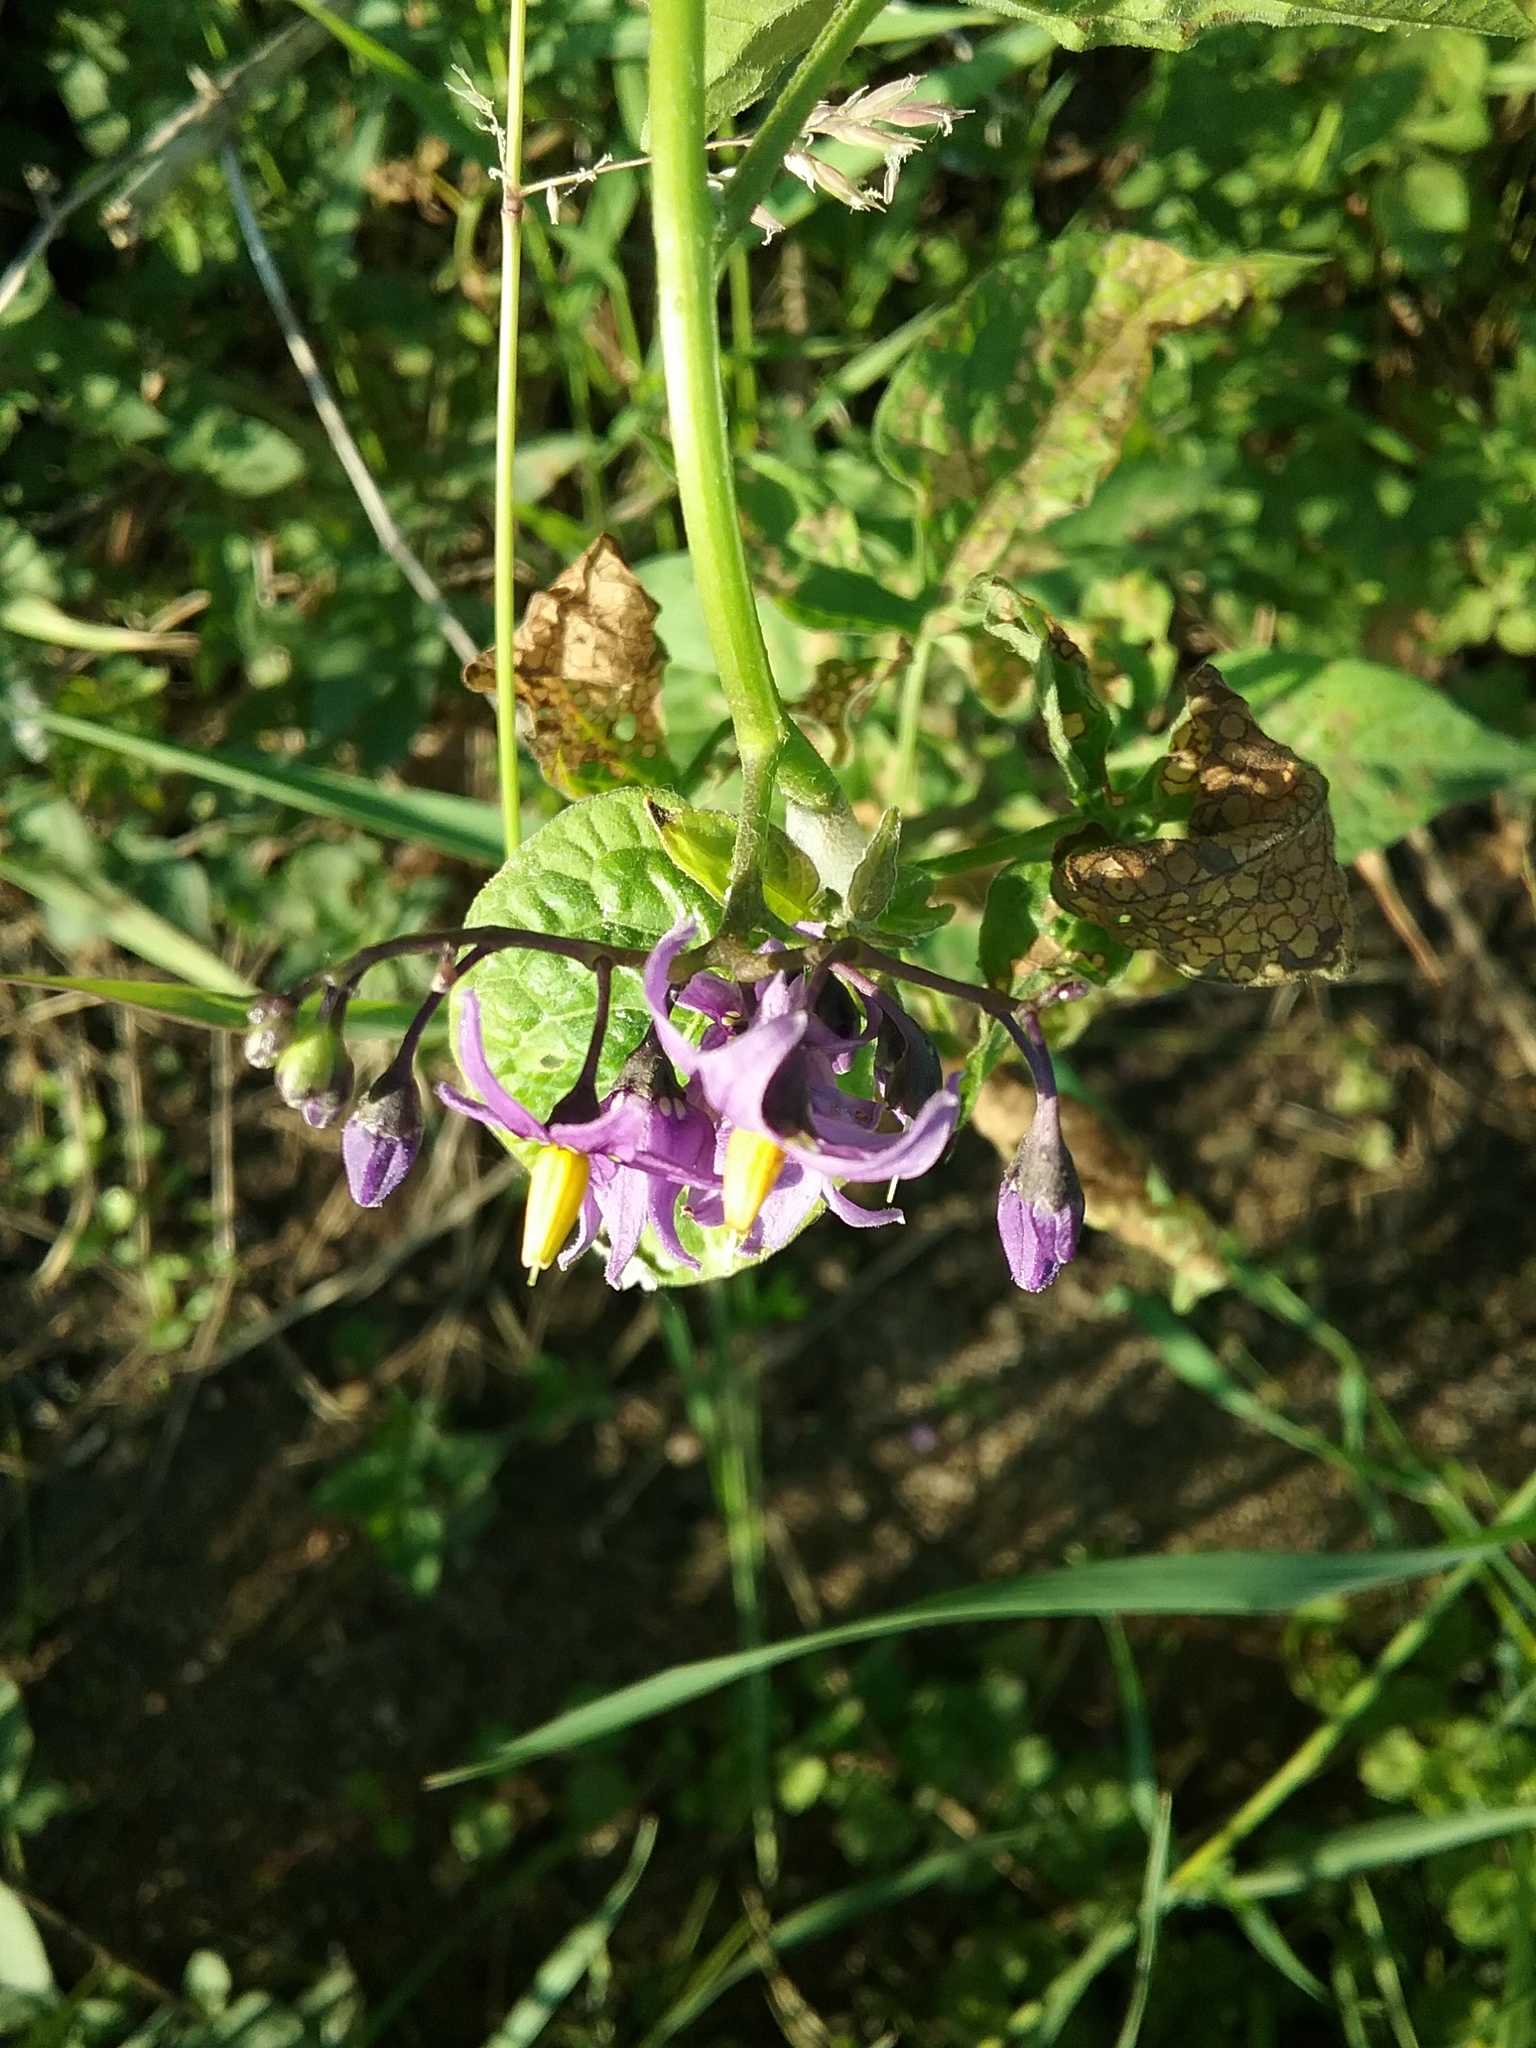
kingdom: Plantae
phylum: Tracheophyta
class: Magnoliopsida
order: Solanales
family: Solanaceae
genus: Solanum
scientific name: Solanum dulcamara
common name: Climbing nightshade
